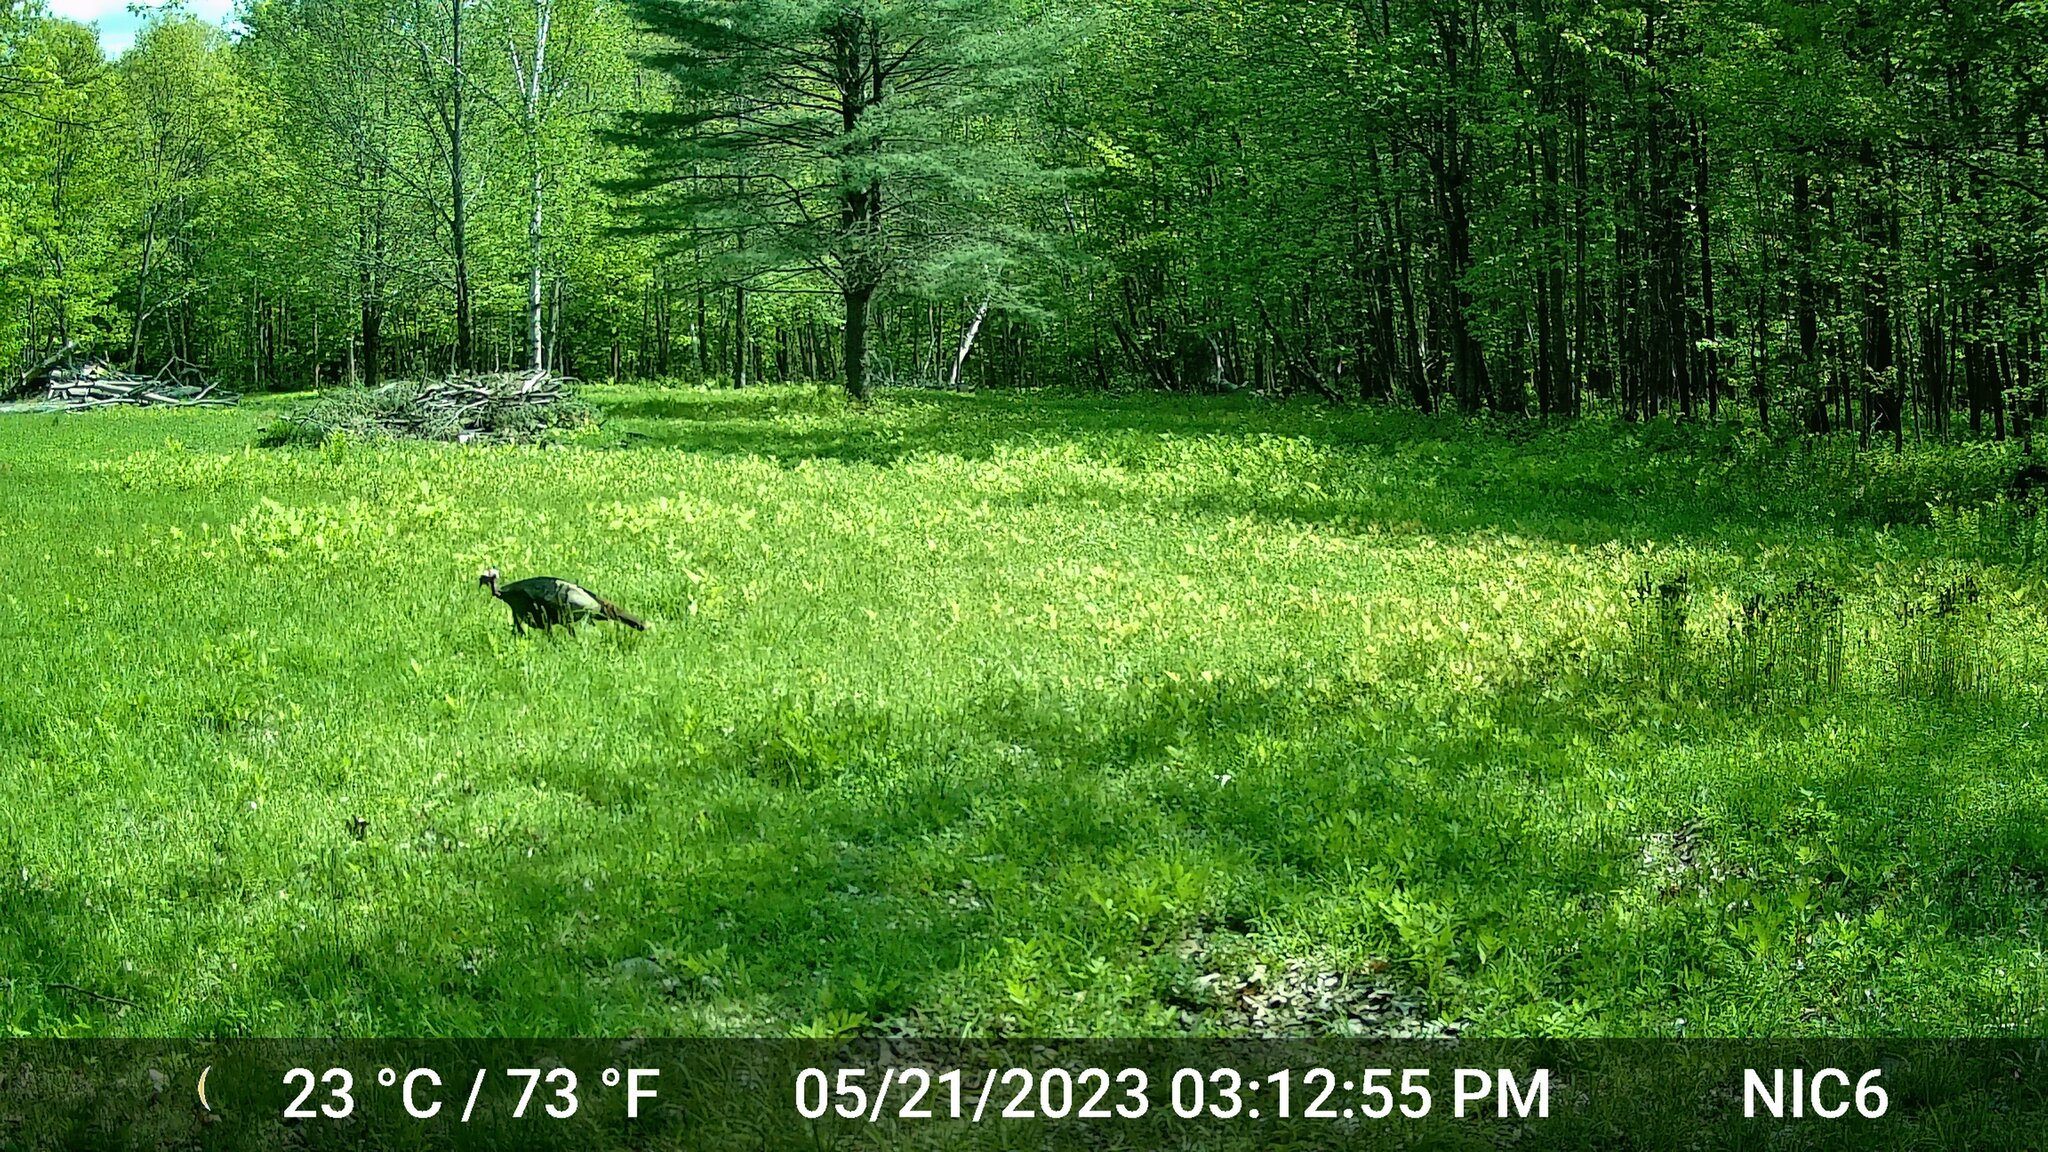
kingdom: Animalia
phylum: Chordata
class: Aves
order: Galliformes
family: Phasianidae
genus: Meleagris
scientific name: Meleagris gallopavo
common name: Wild turkey
